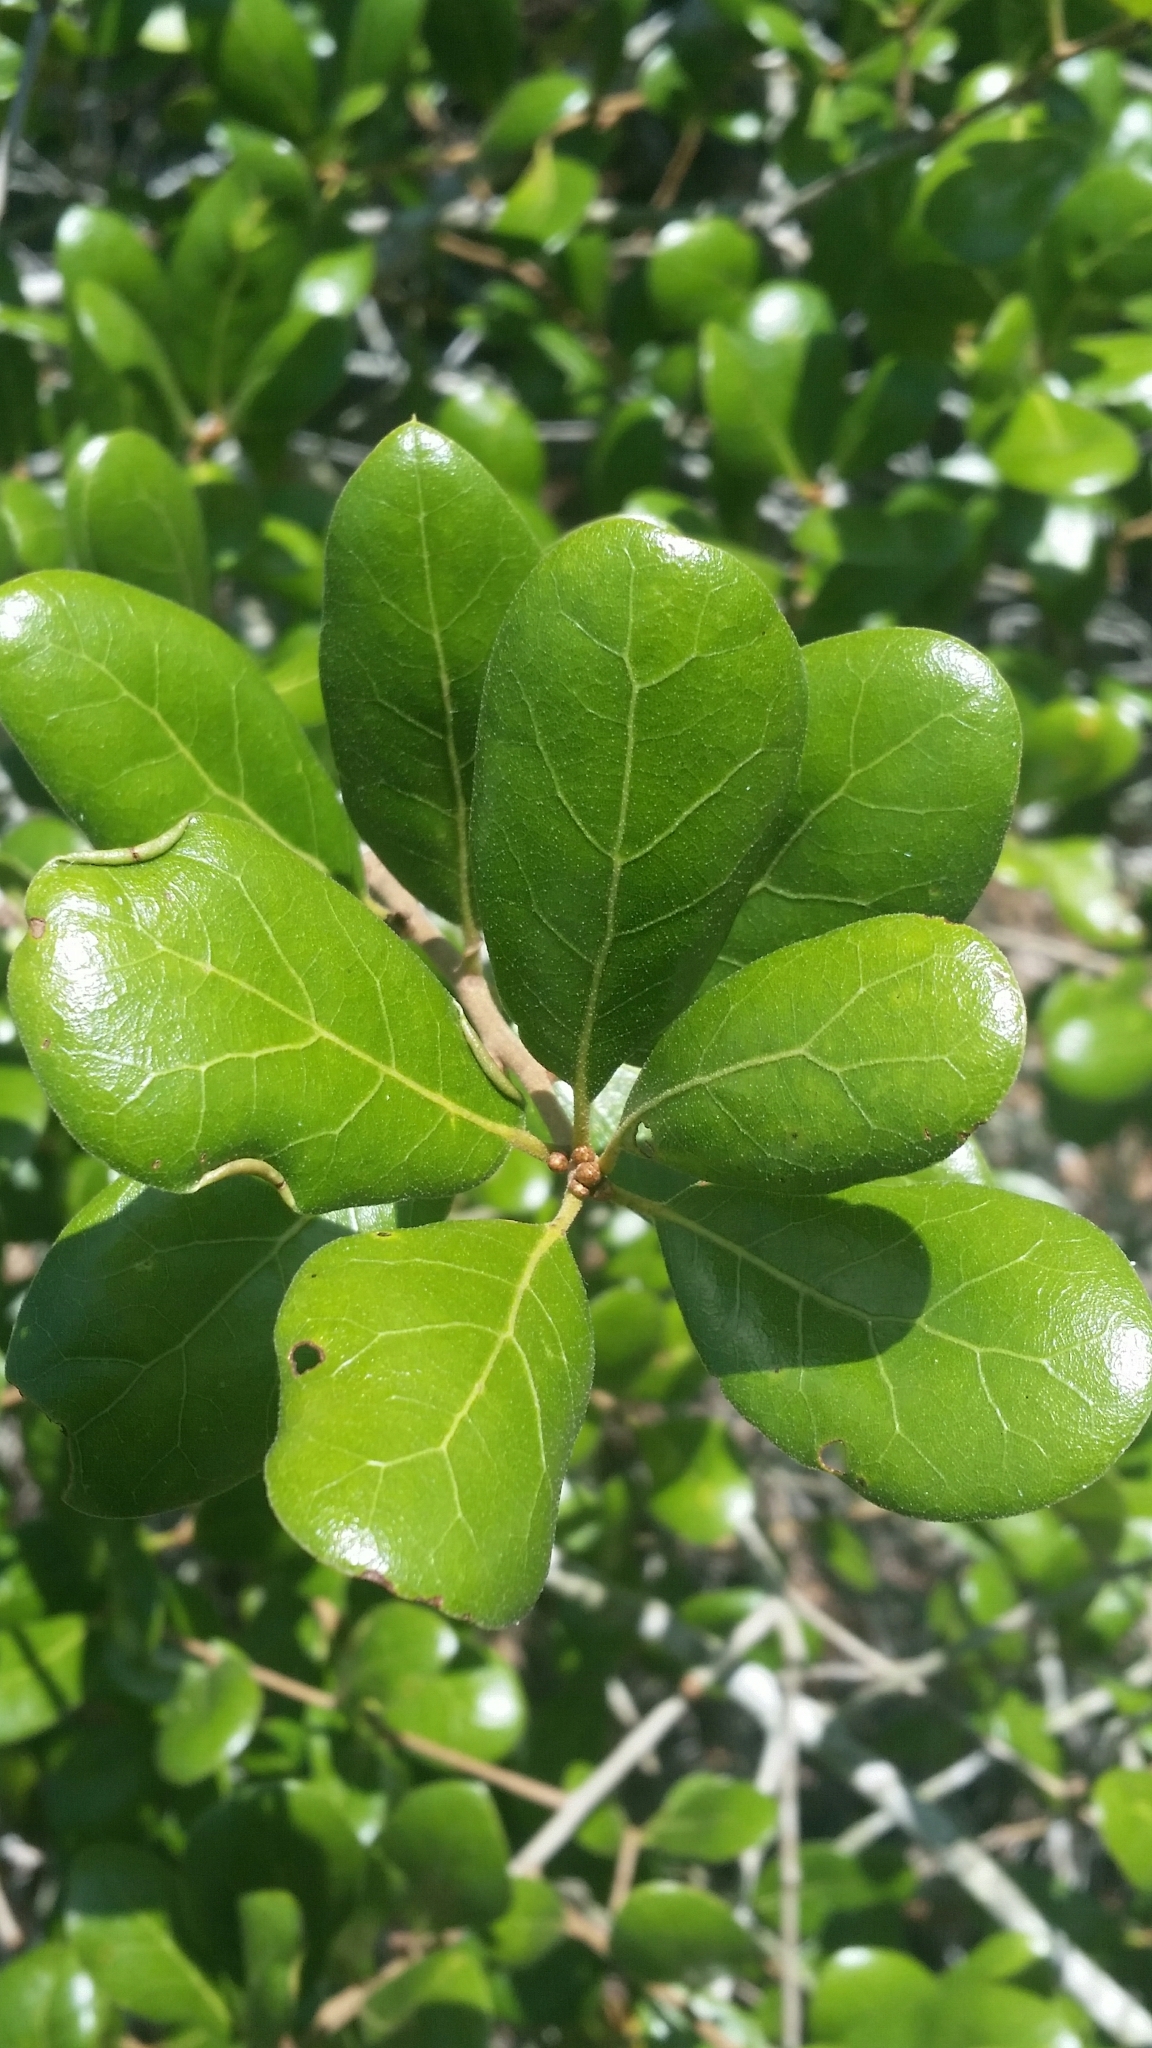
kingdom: Plantae
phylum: Tracheophyta
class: Magnoliopsida
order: Fagales
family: Fagaceae
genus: Quercus
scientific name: Quercus myrtifolia
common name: Myrtle oak
